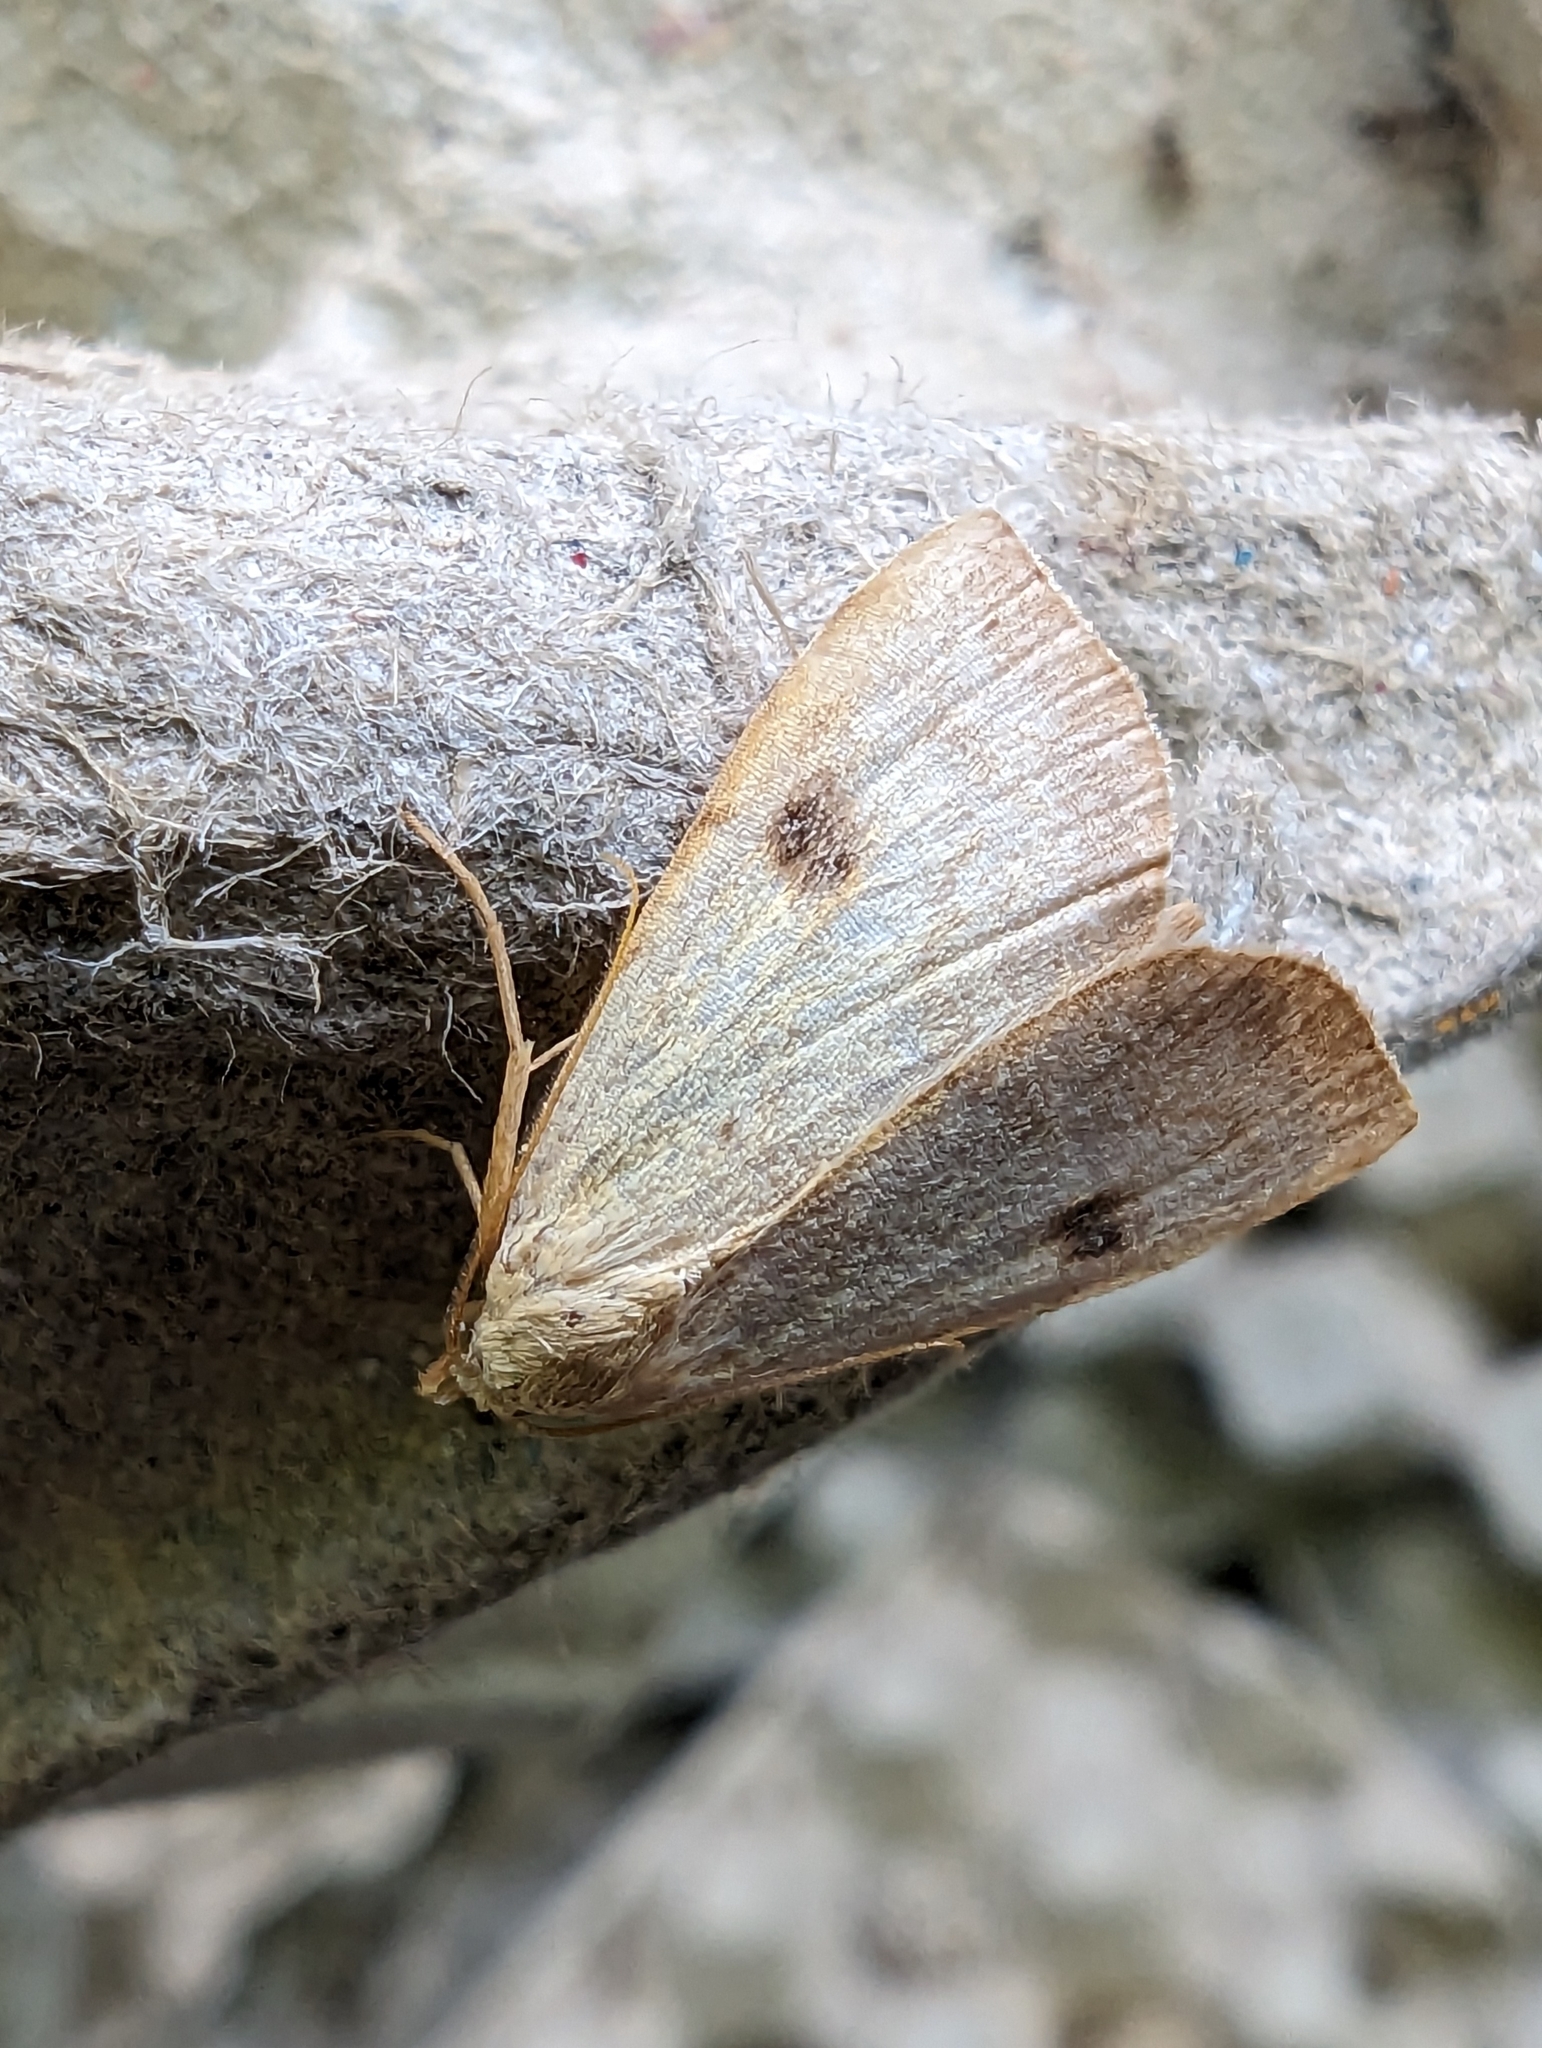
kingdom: Animalia
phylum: Arthropoda
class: Insecta
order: Lepidoptera
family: Erebidae
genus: Rivula
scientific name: Rivula sericealis
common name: Straw dot
